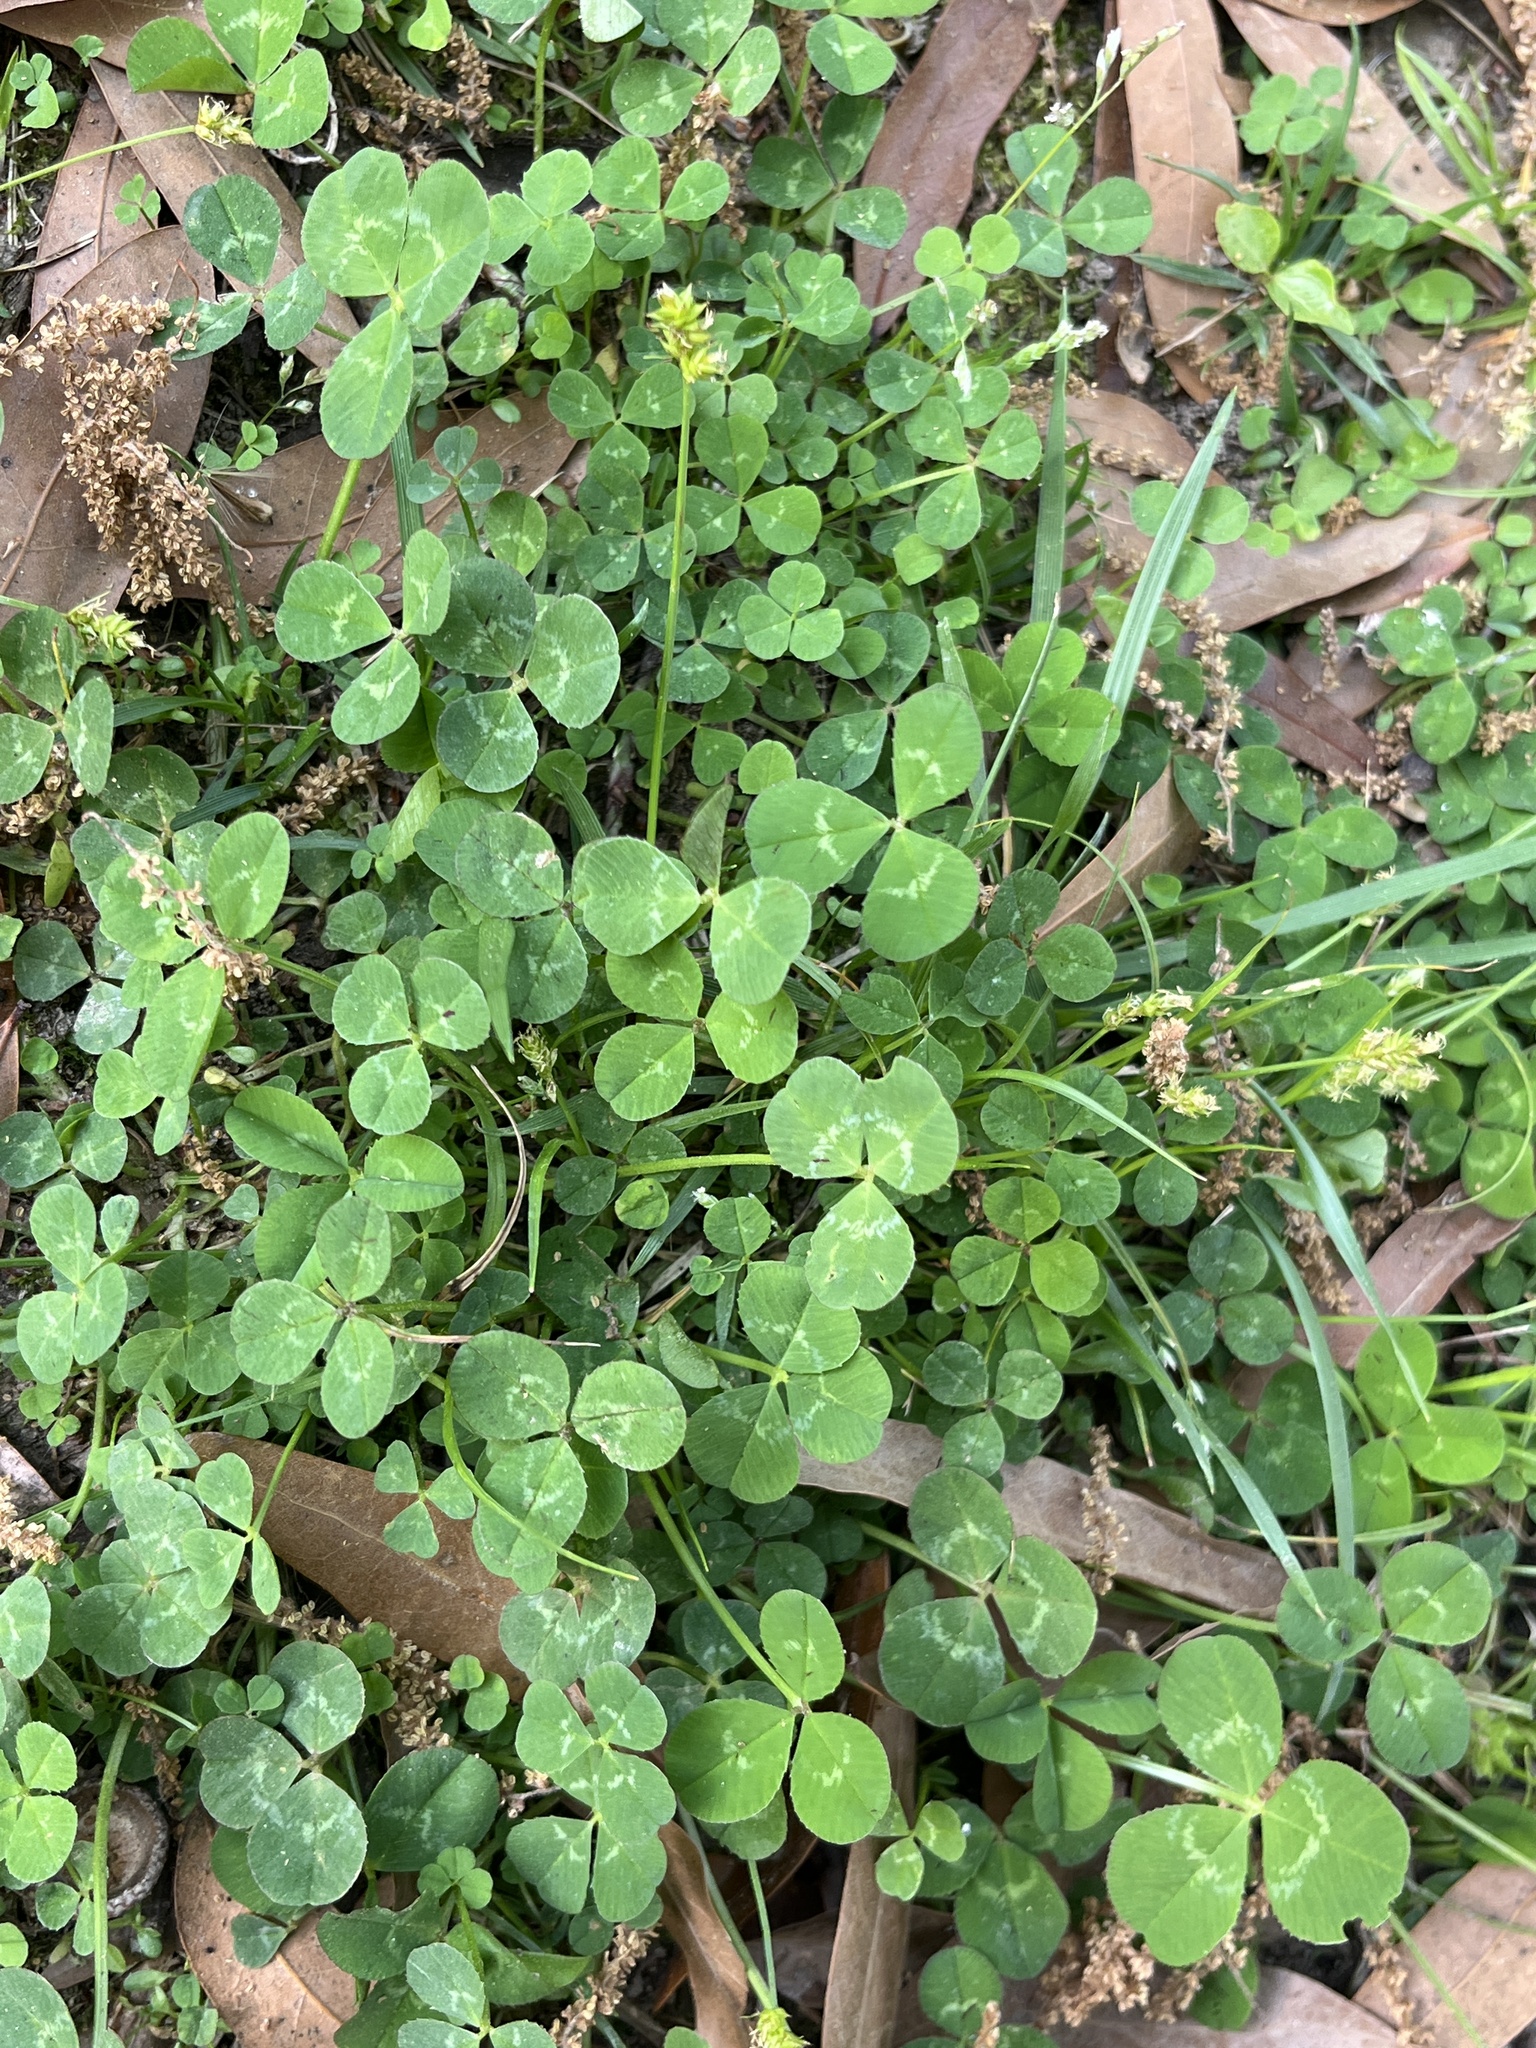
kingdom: Plantae
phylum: Tracheophyta
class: Magnoliopsida
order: Fabales
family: Fabaceae
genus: Trifolium
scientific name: Trifolium repens
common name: White clover
